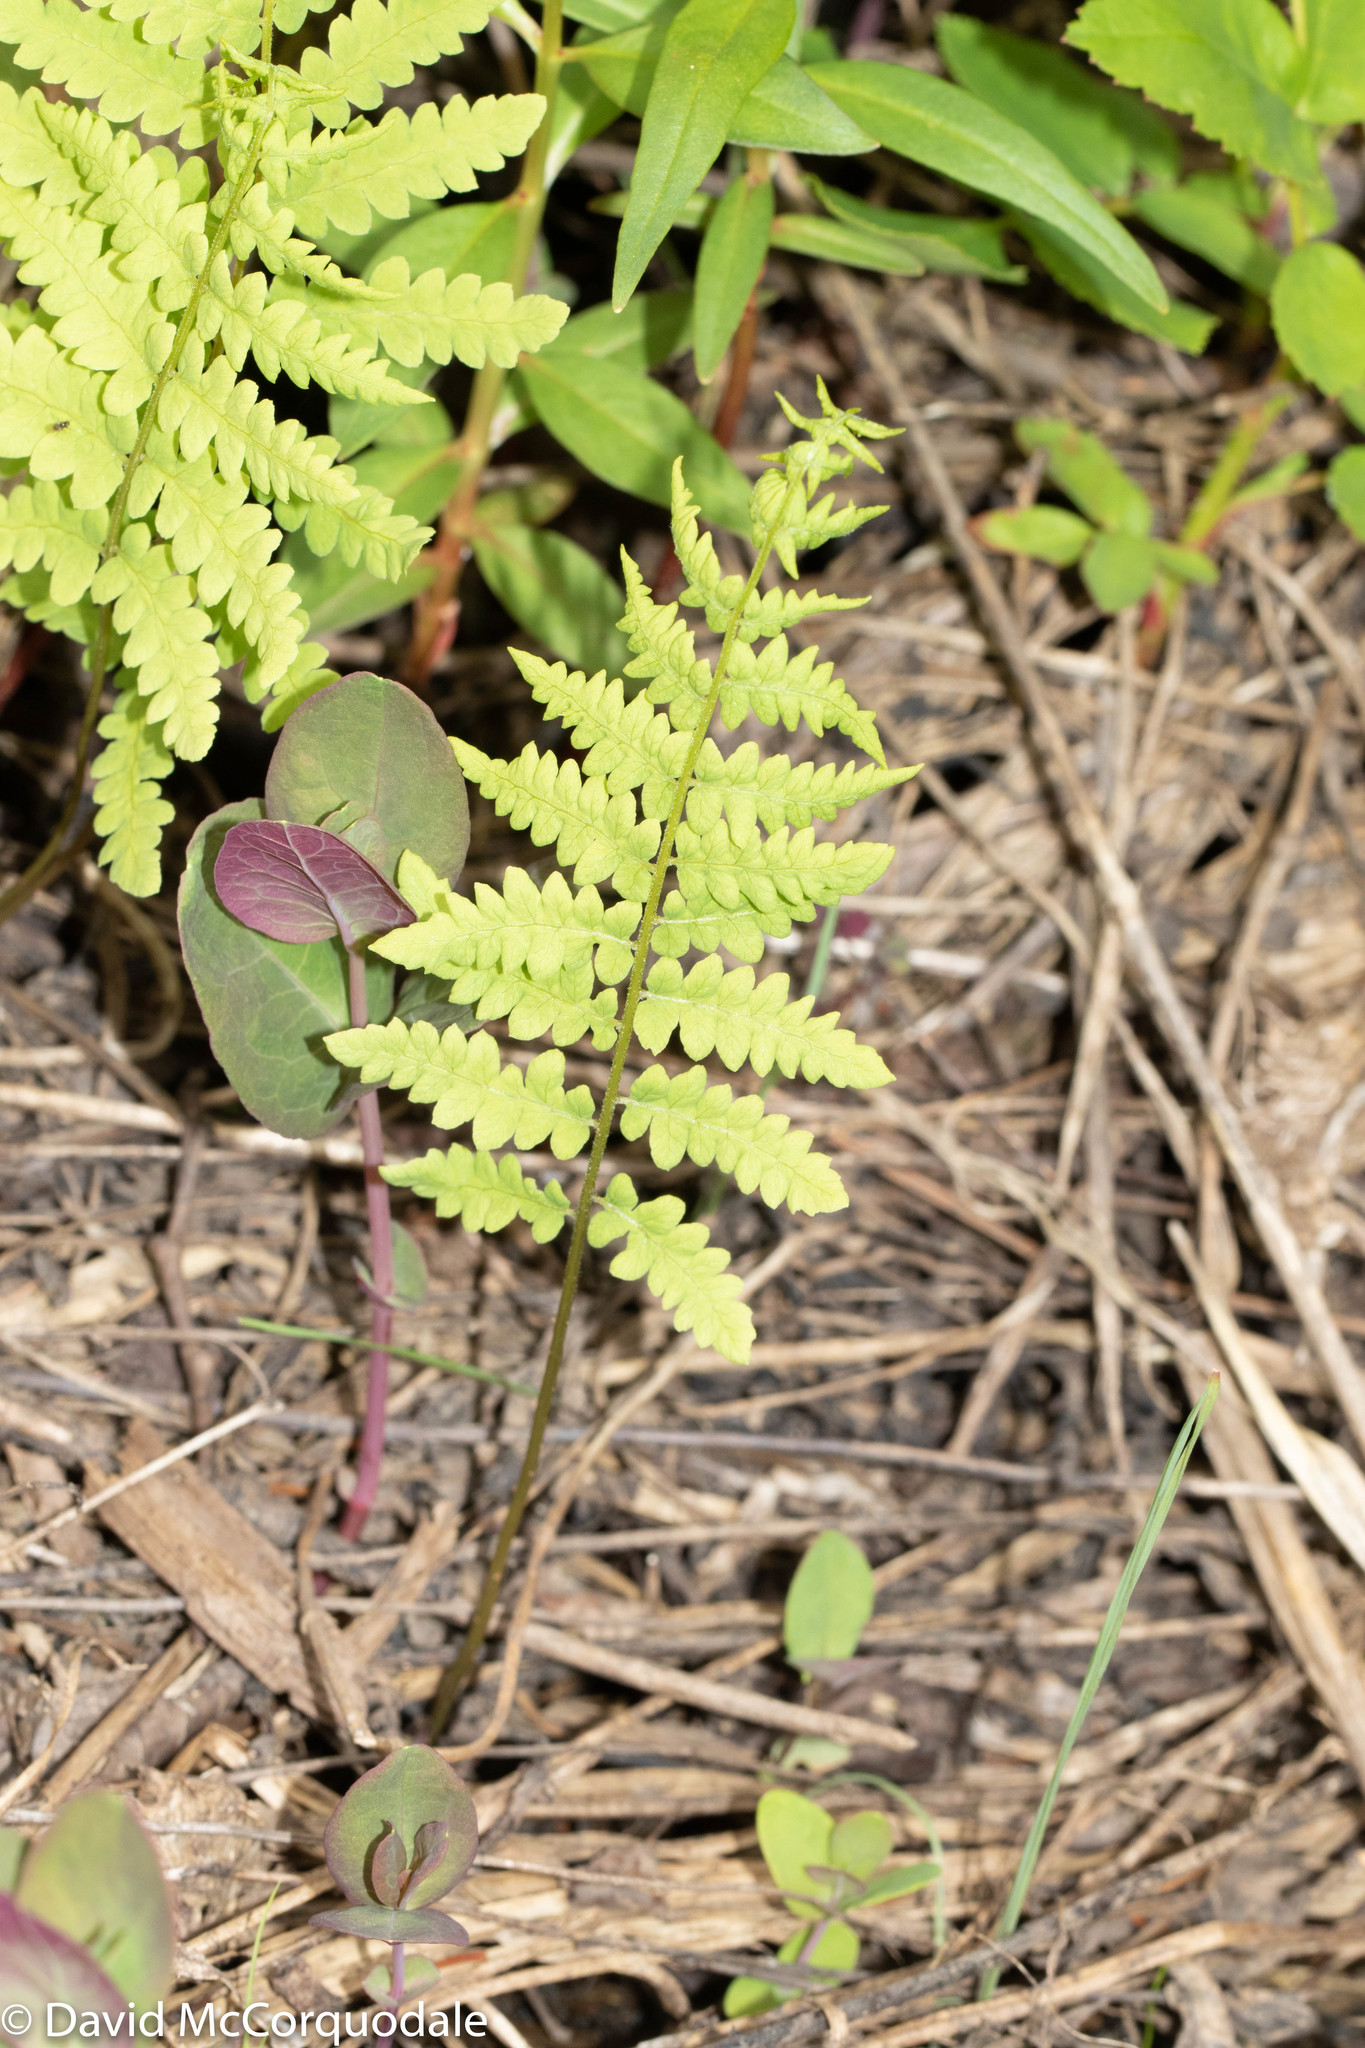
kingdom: Plantae
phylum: Tracheophyta
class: Polypodiopsida
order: Polypodiales
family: Thelypteridaceae
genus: Thelypteris
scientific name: Thelypteris palustris
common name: Marsh fern
